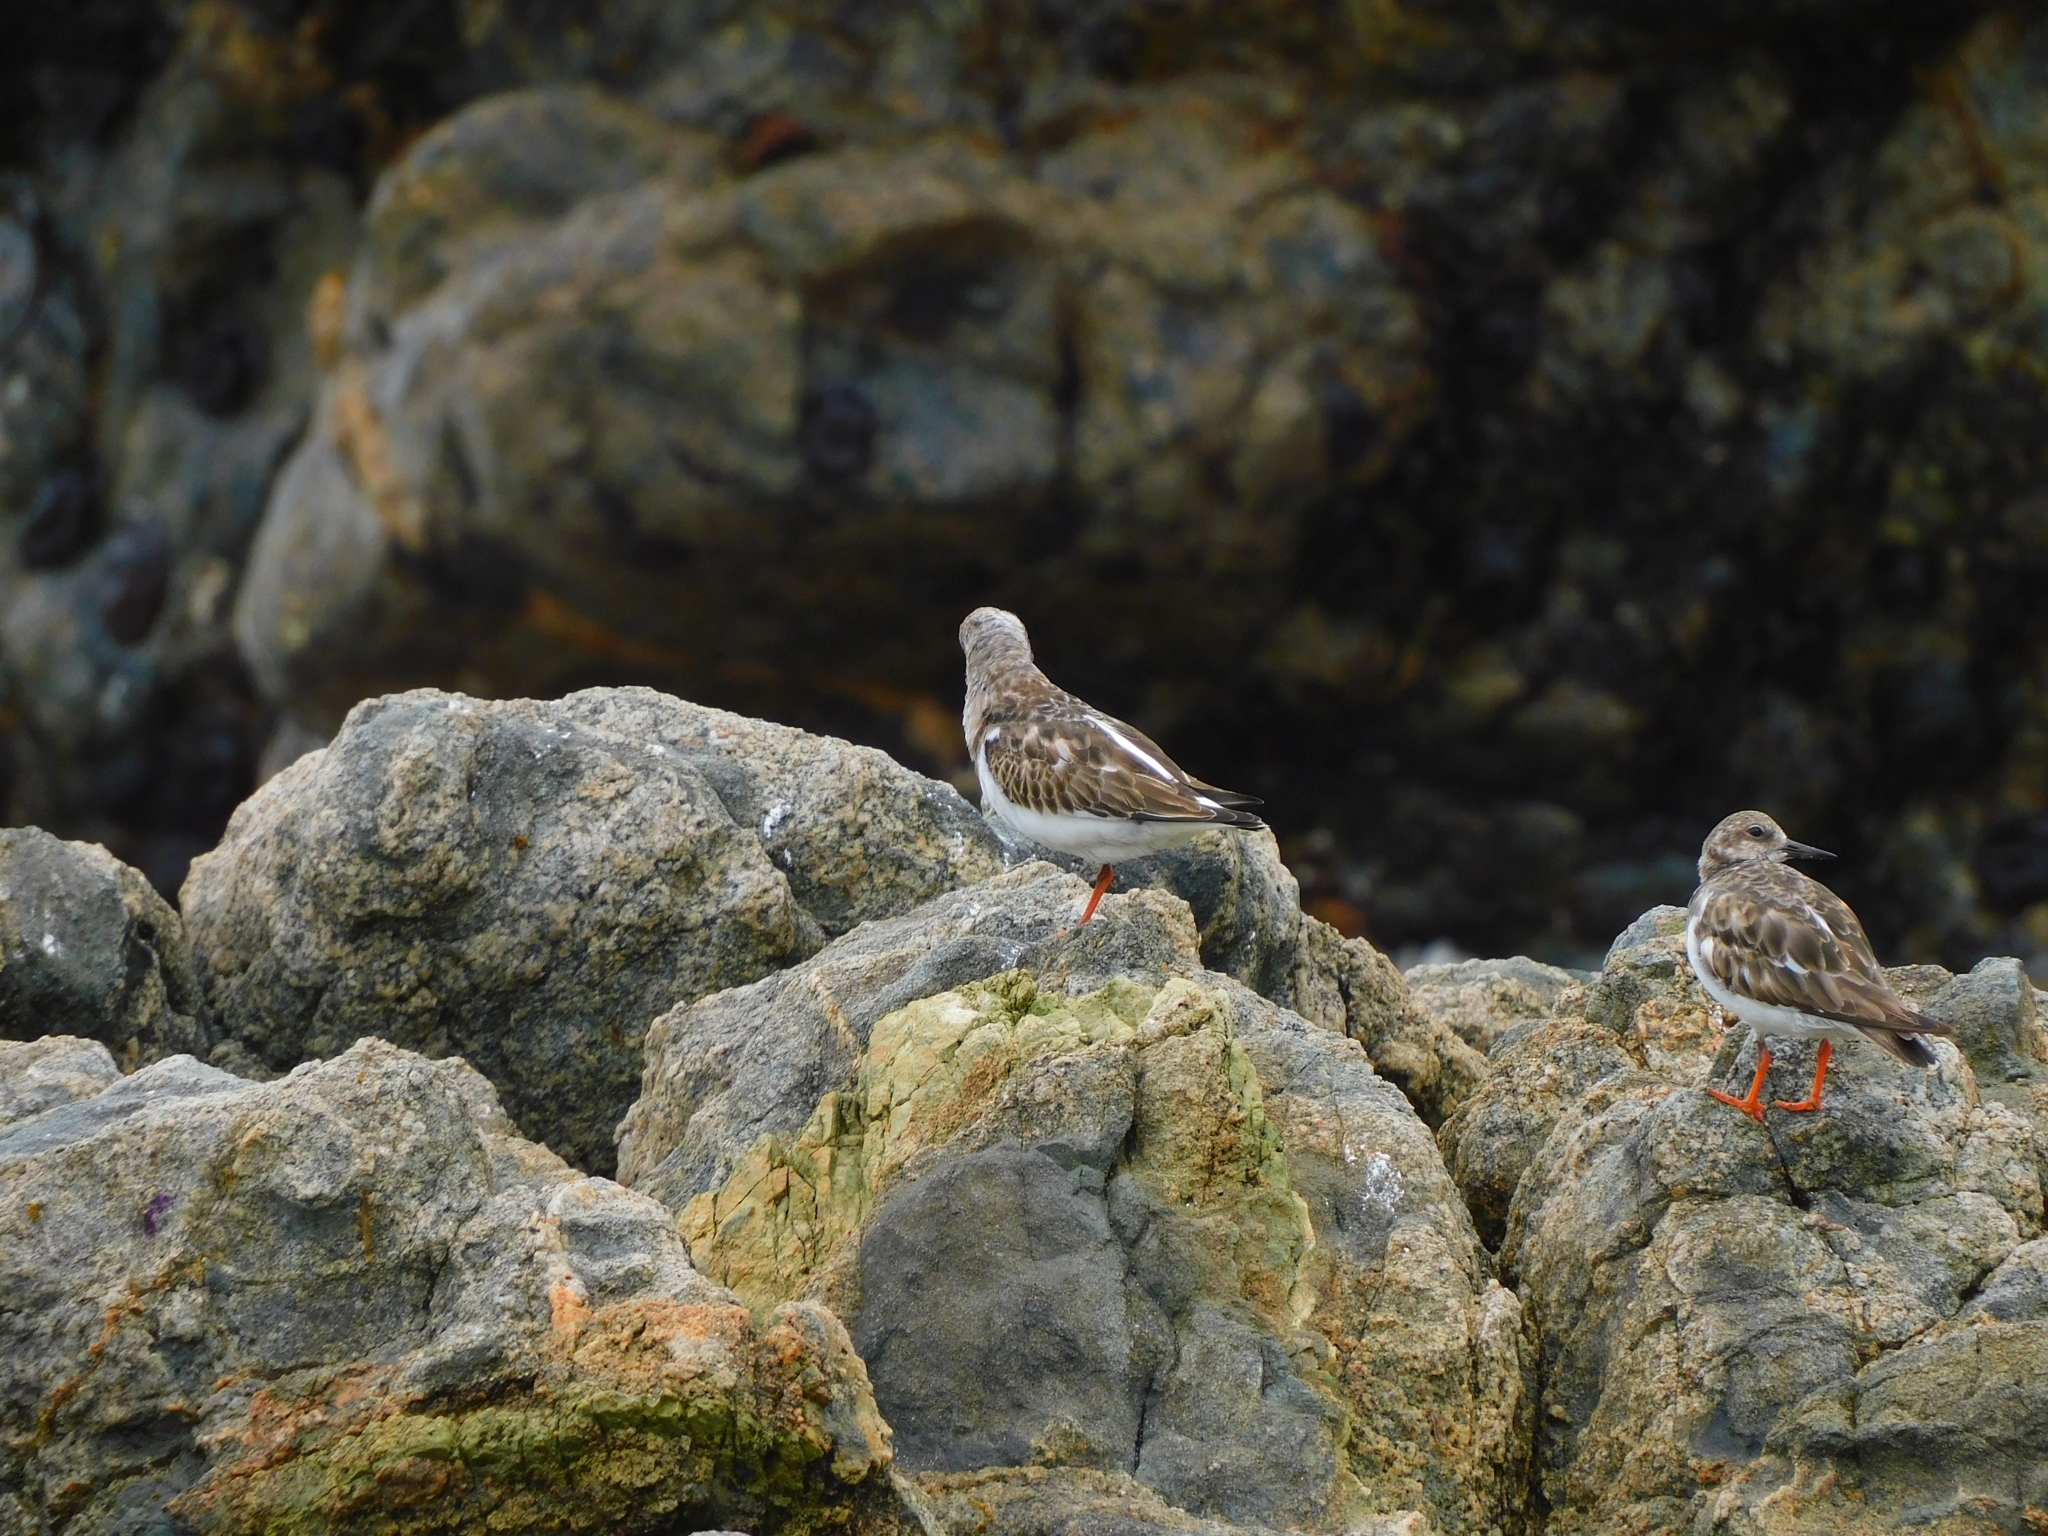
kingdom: Animalia
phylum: Chordata
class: Aves
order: Charadriiformes
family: Scolopacidae
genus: Arenaria
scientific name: Arenaria interpres
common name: Ruddy turnstone
